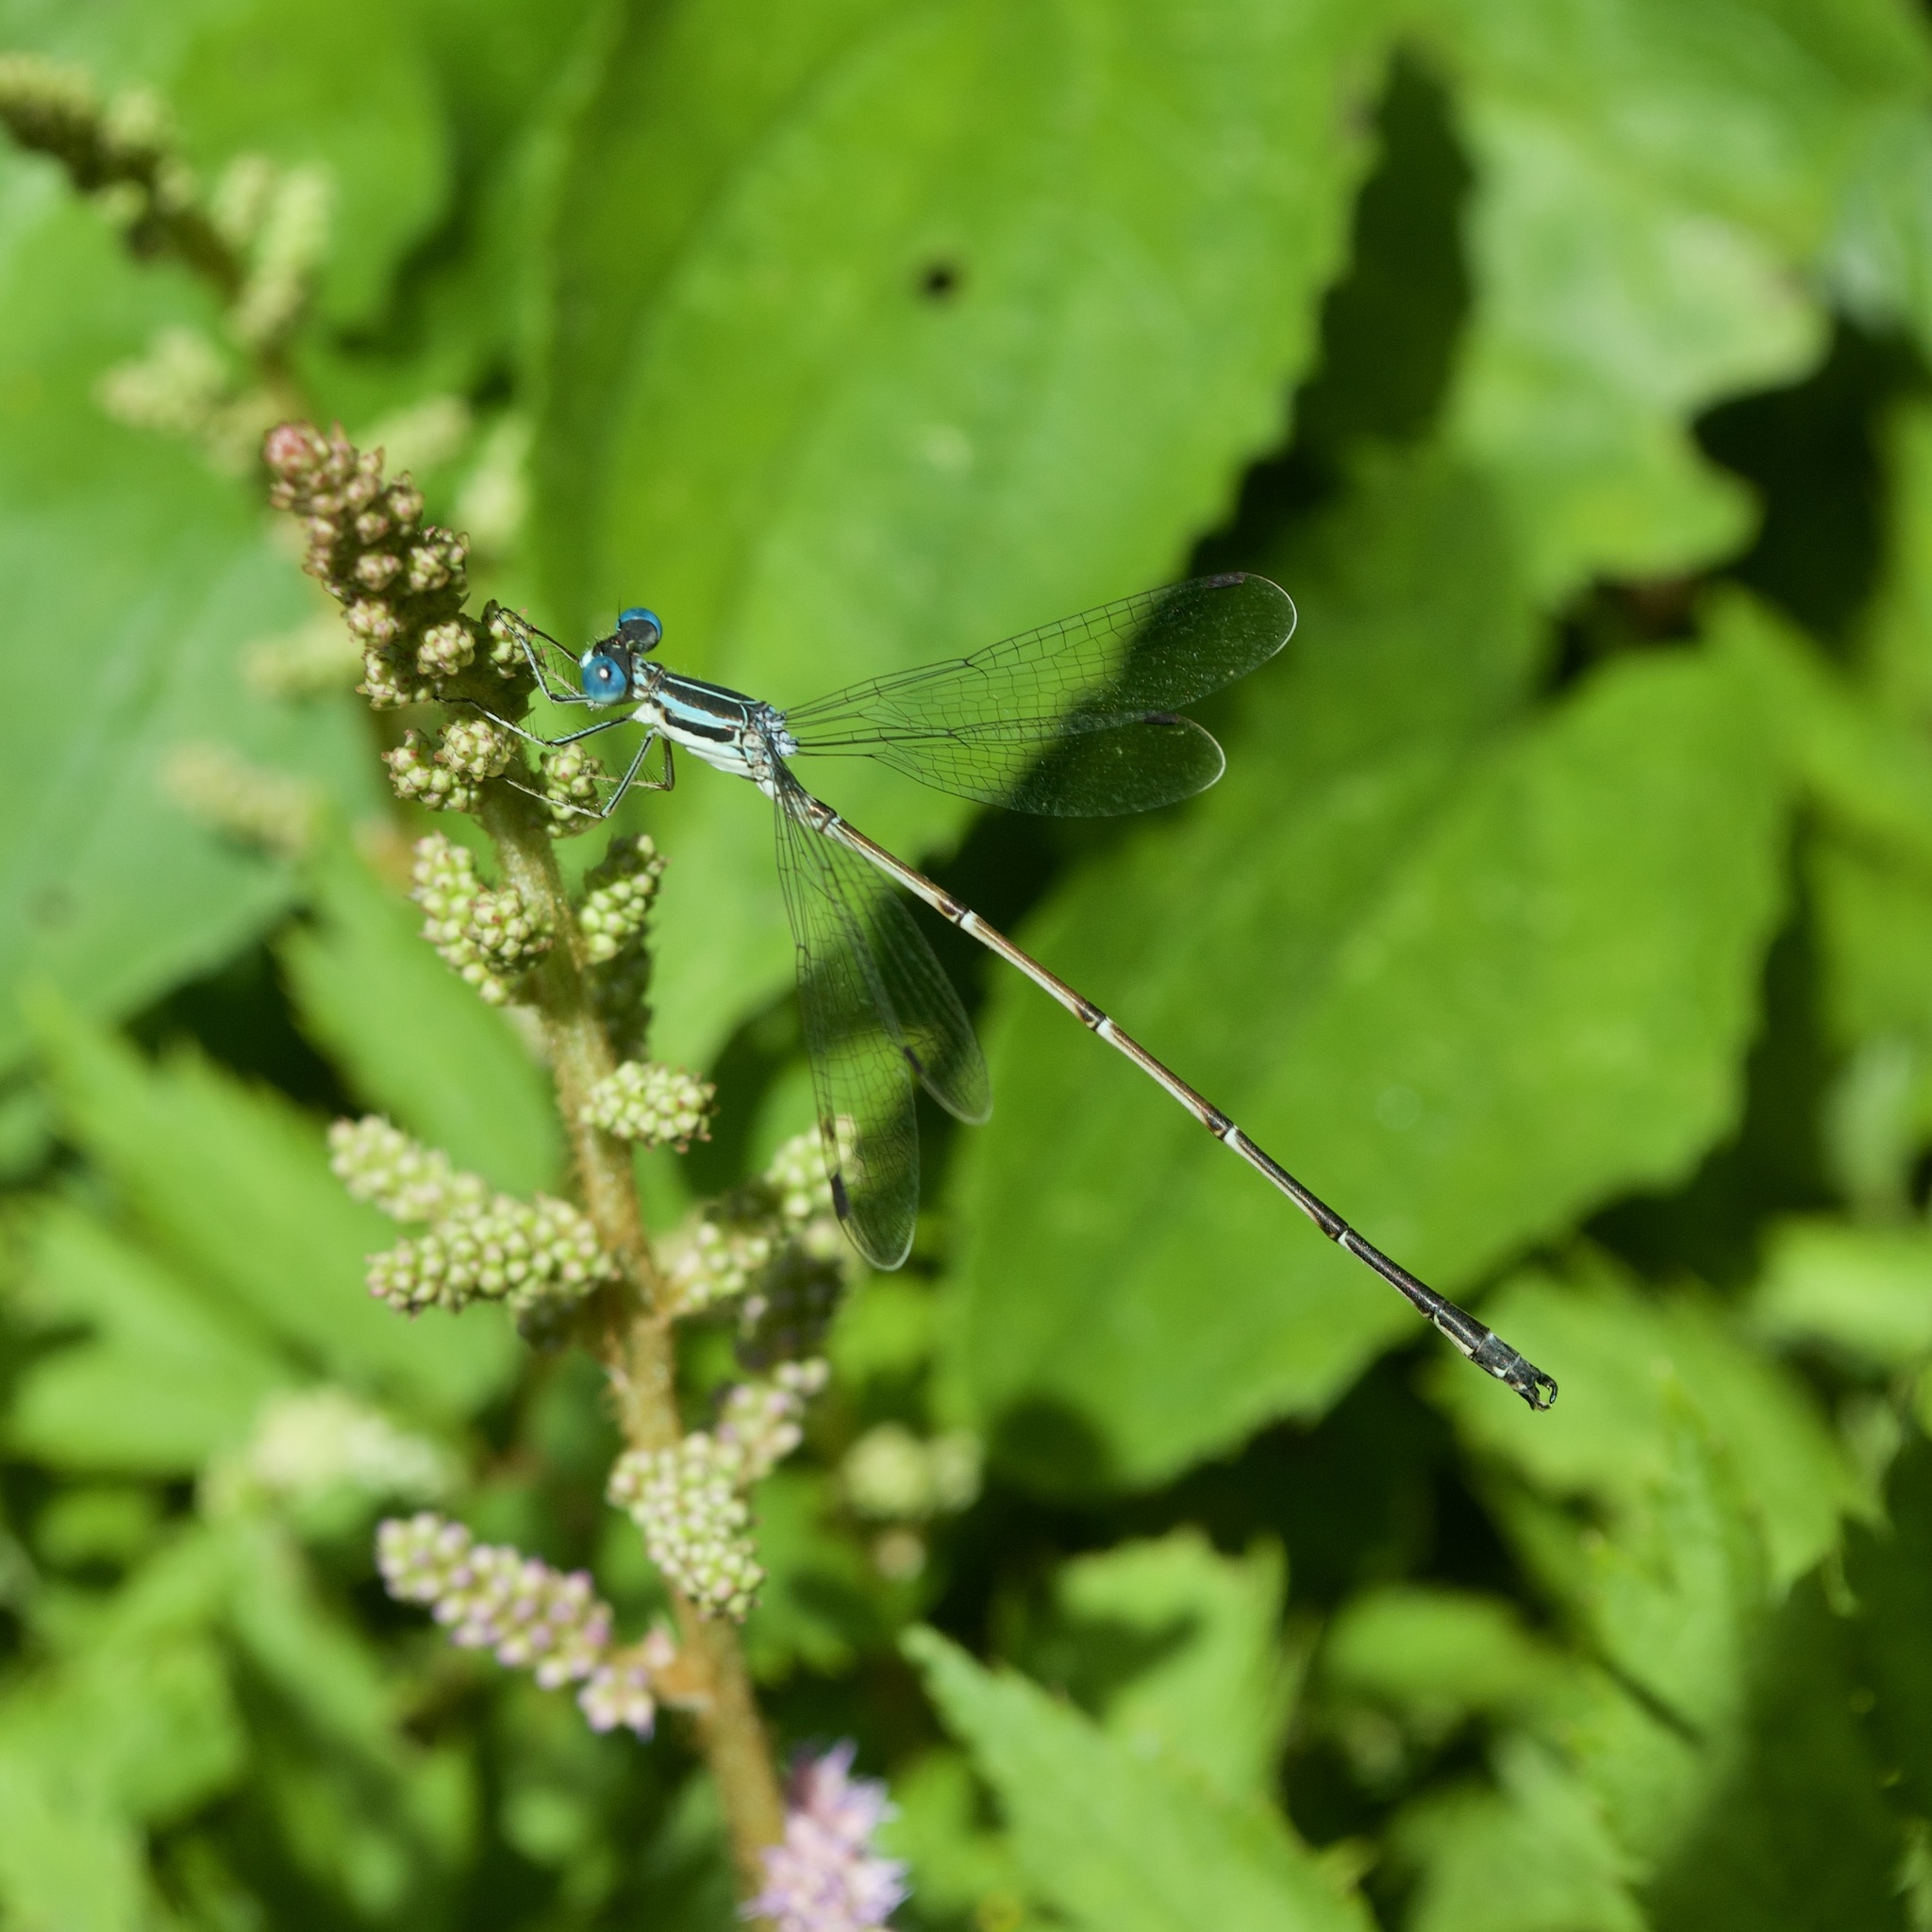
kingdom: Animalia
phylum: Arthropoda
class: Insecta
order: Odonata
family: Lestidae
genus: Lestes
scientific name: Lestes rectangularis
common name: Slender spreadwing
